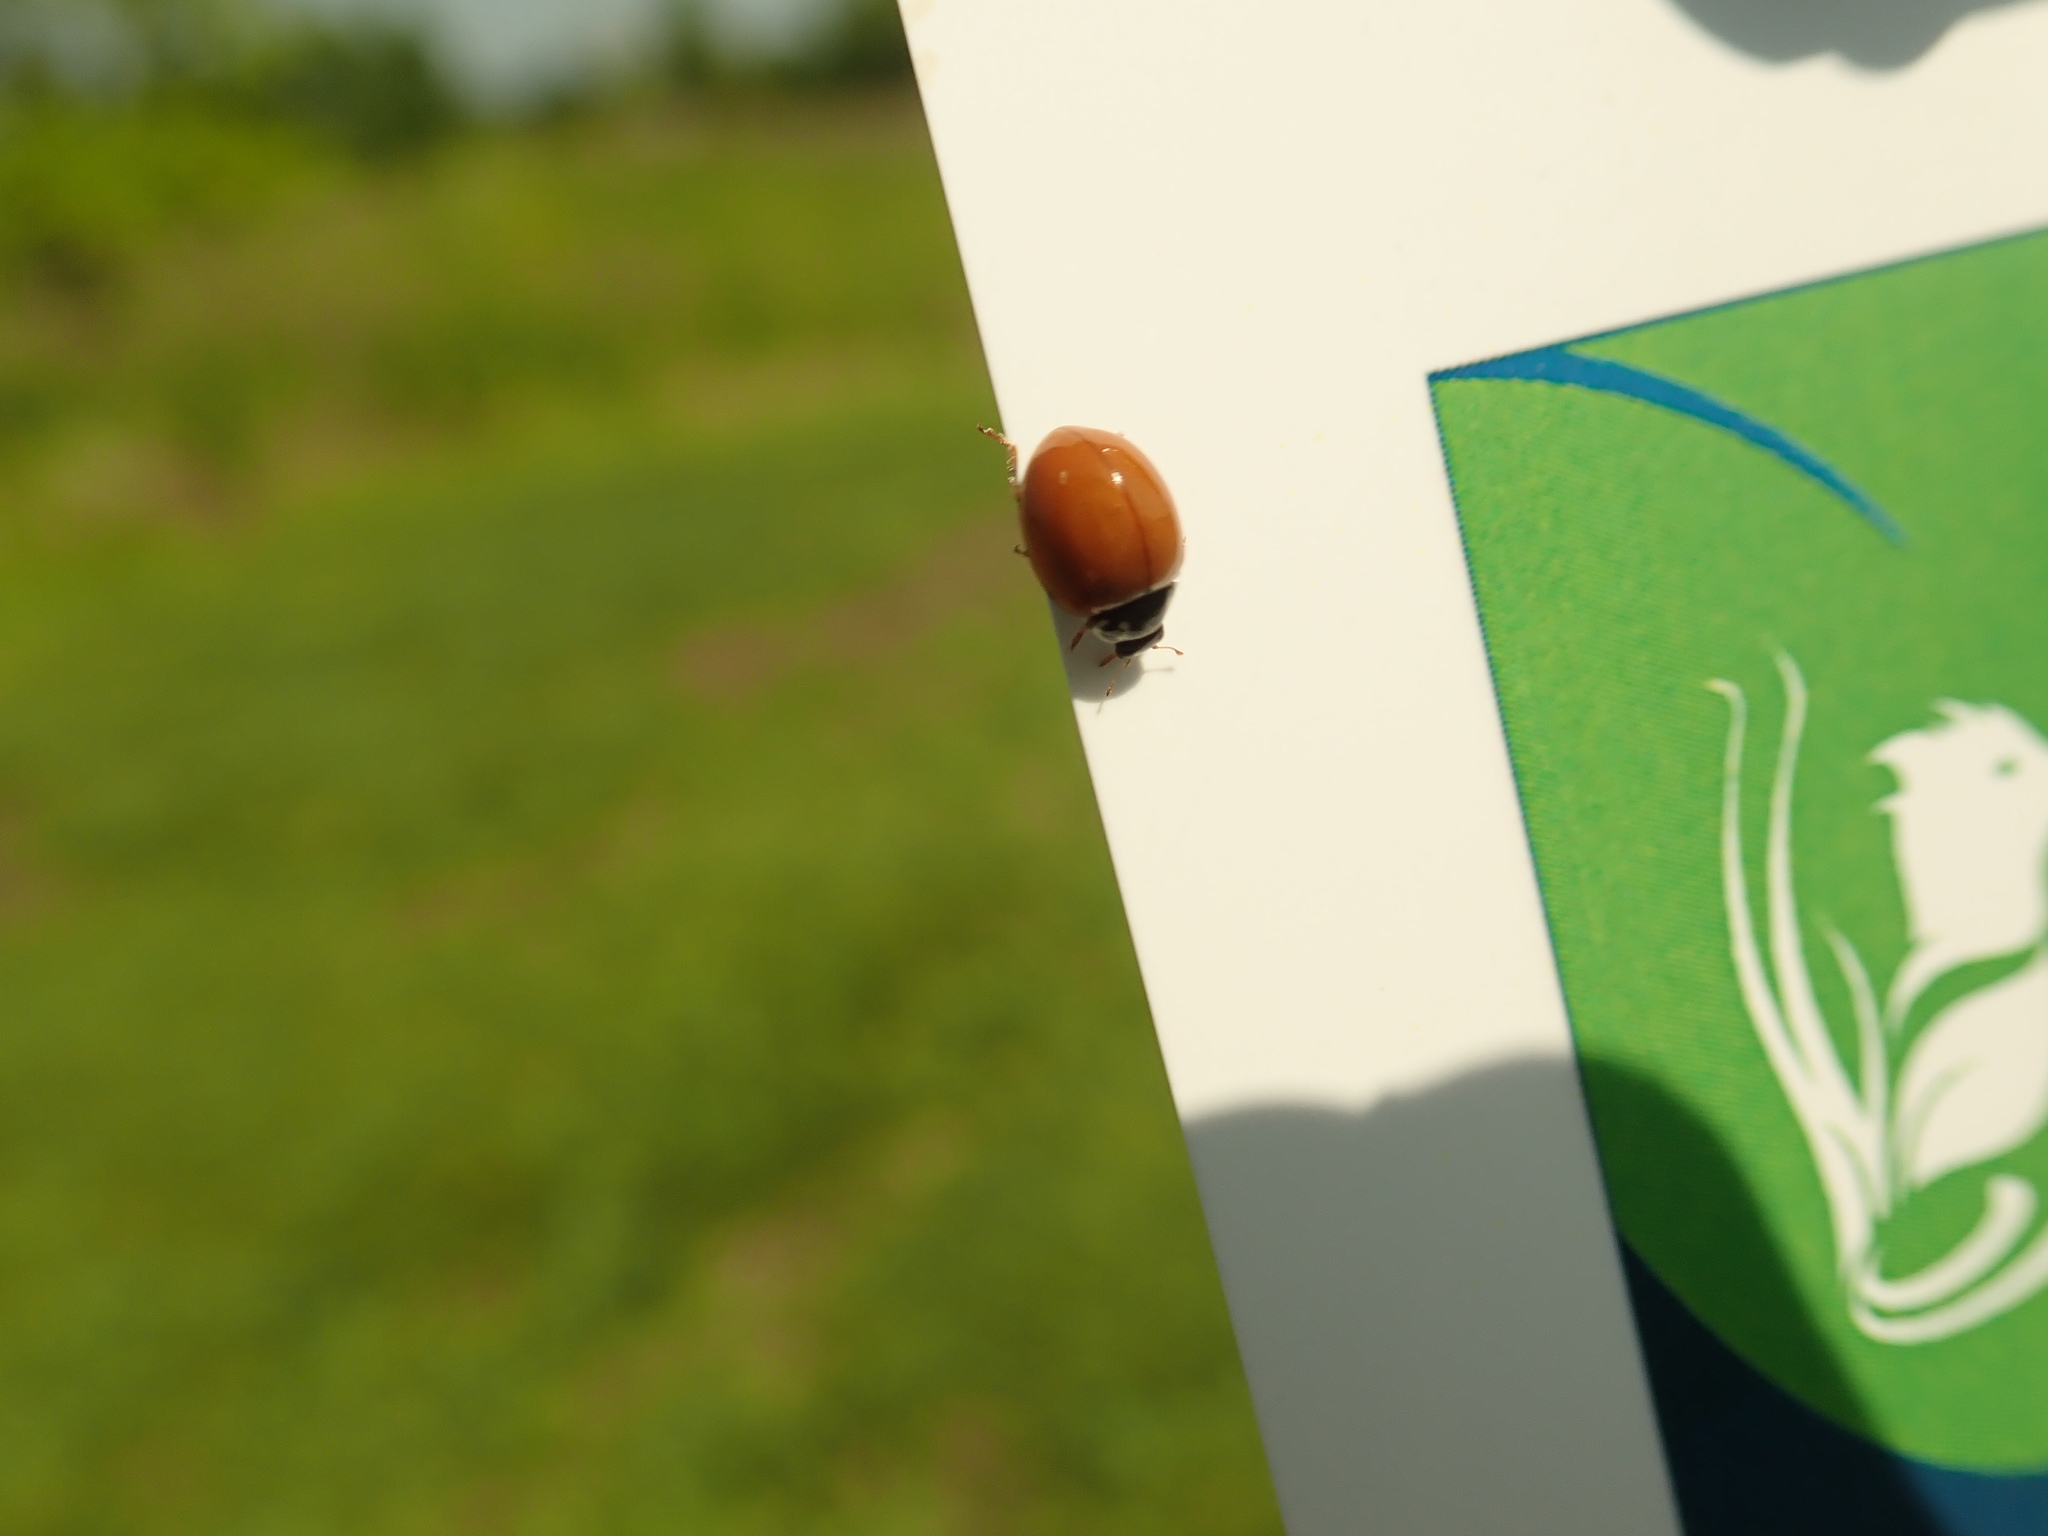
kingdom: Animalia
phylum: Arthropoda
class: Insecta
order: Coleoptera
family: Coccinellidae
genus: Cycloneda
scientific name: Cycloneda munda
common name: Polished lady beetle
